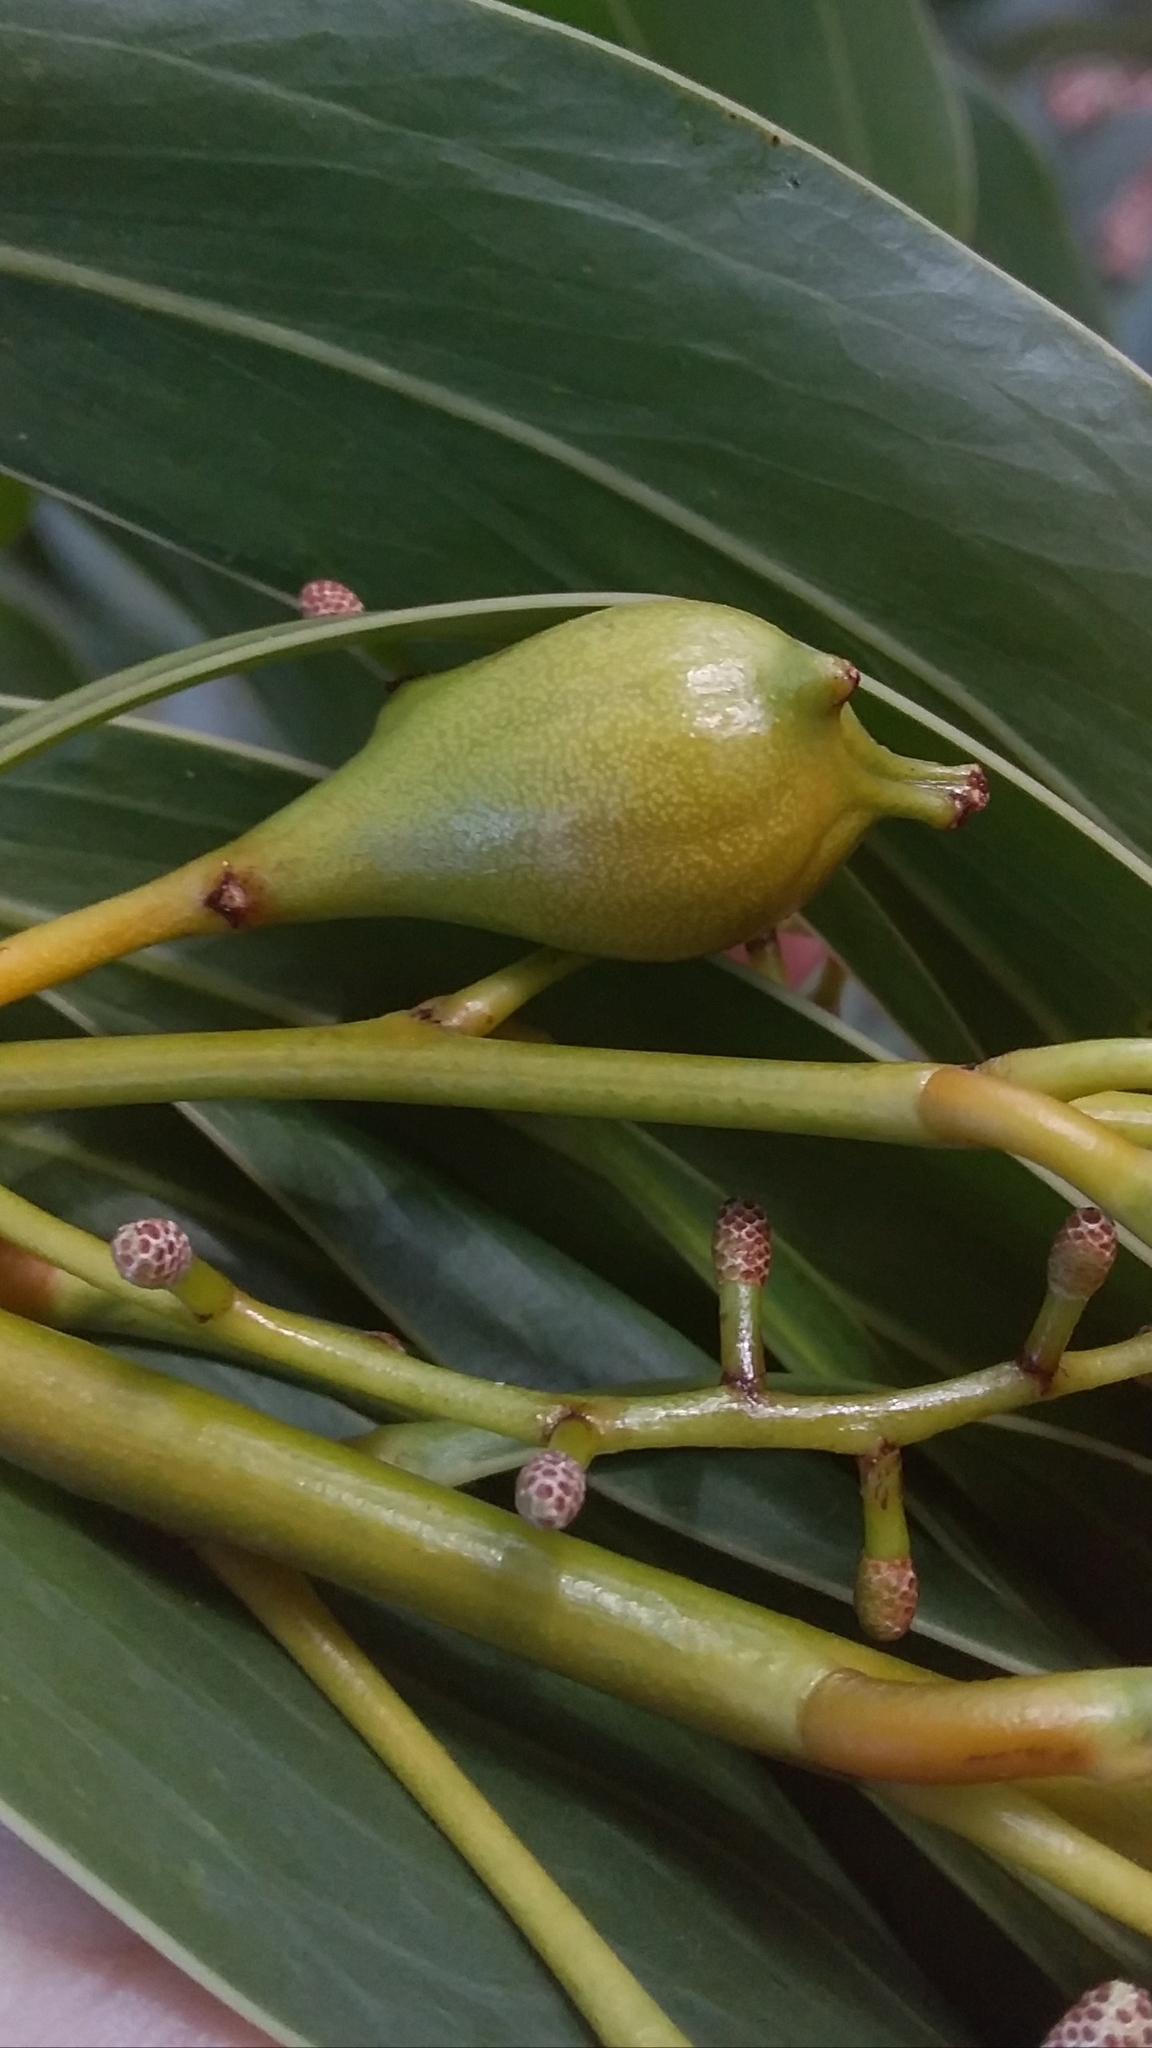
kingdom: Animalia
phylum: Arthropoda
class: Insecta
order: Hymenoptera
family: Pteromalidae
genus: Trichilogaster
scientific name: Trichilogaster signiventris
